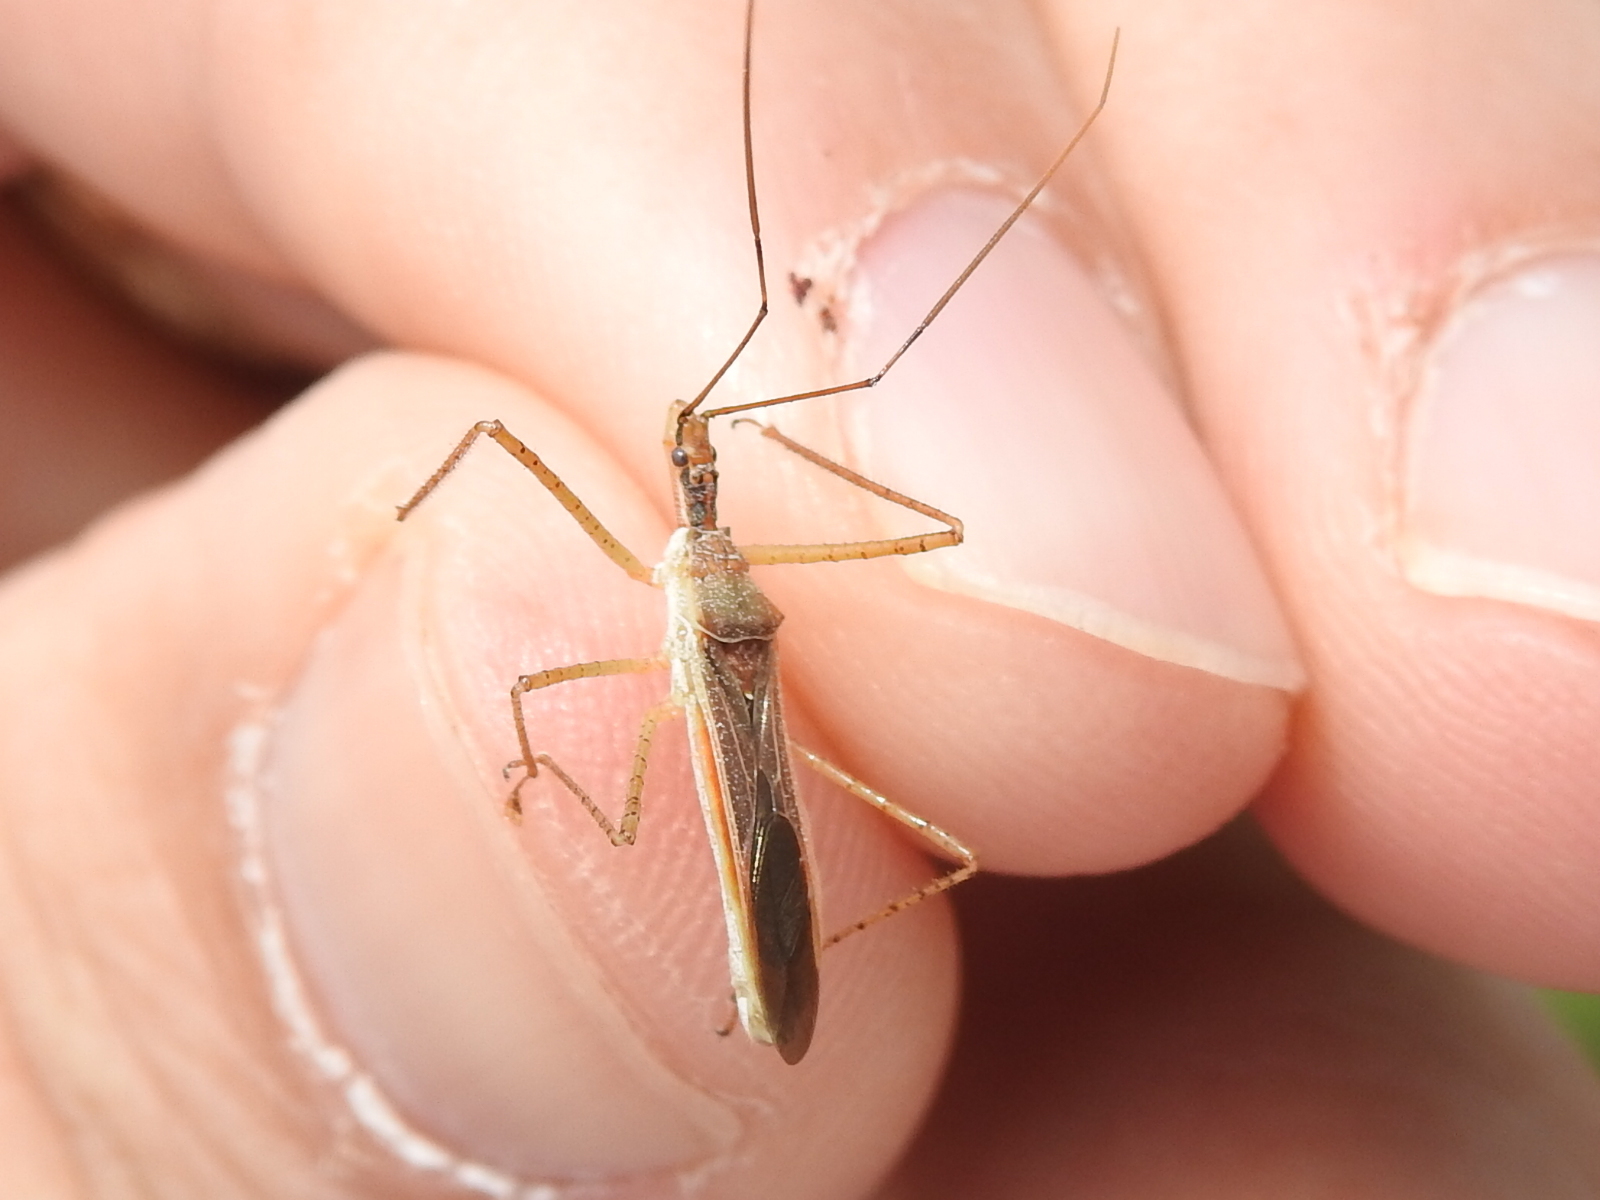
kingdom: Animalia
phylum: Arthropoda
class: Insecta
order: Hemiptera
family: Reduviidae
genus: Zelus
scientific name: Zelus cervicalis
